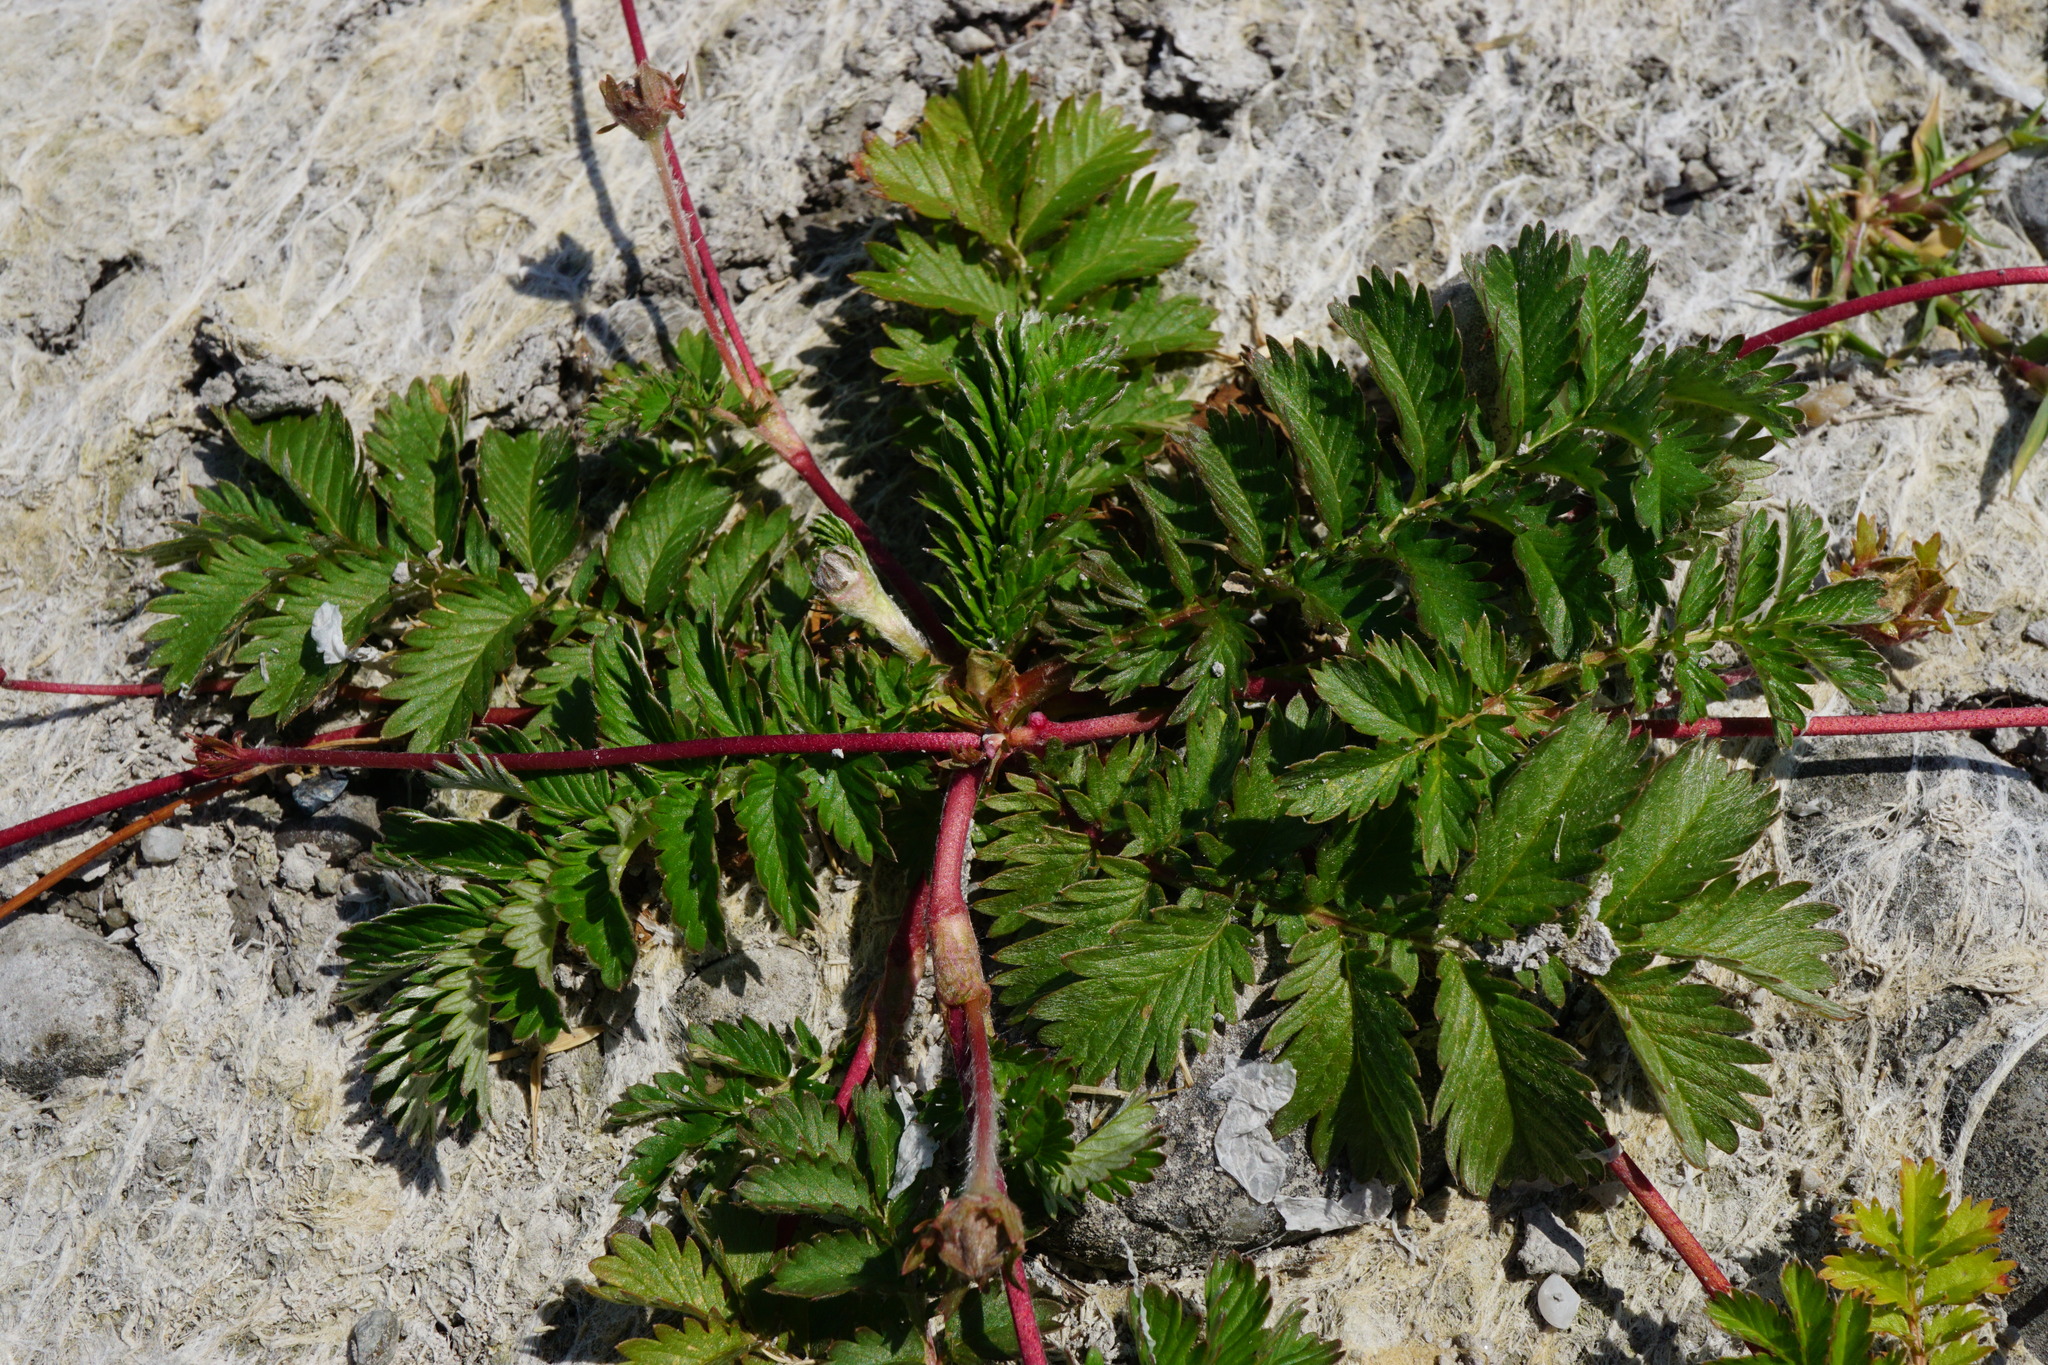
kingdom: Plantae
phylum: Tracheophyta
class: Magnoliopsida
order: Rosales
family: Rosaceae
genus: Argentina
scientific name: Argentina anserina
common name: Common silverweed
